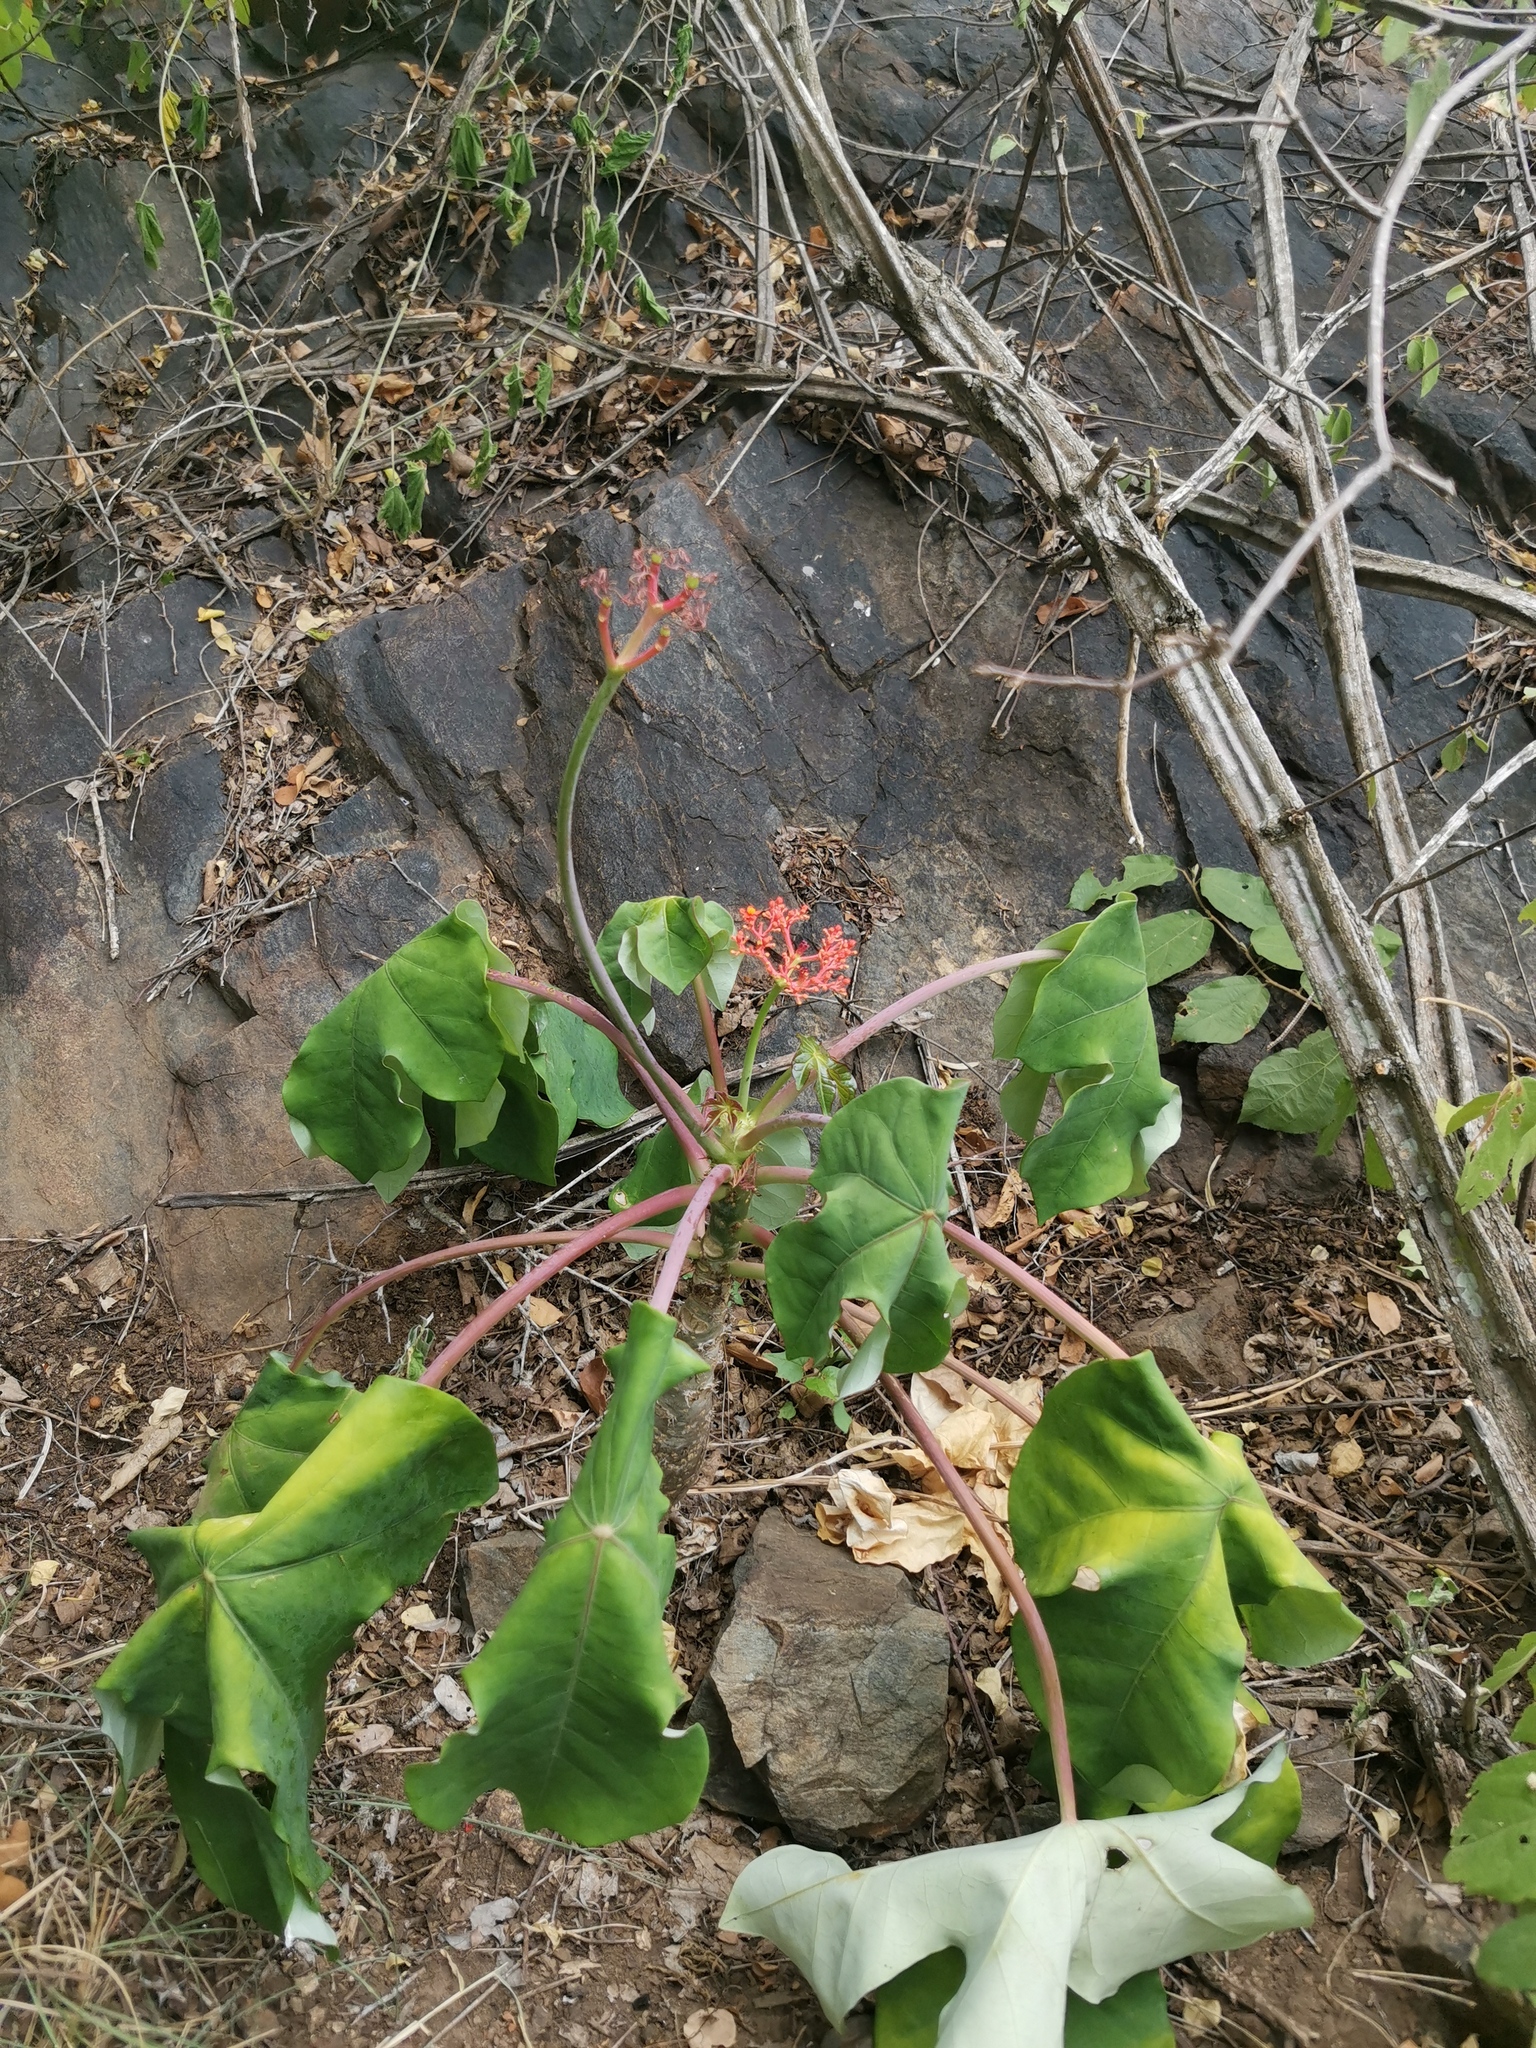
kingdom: Plantae
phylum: Tracheophyta
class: Magnoliopsida
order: Malpighiales
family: Euphorbiaceae
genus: Jatropha
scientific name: Jatropha podagrica
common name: Gout stalk
